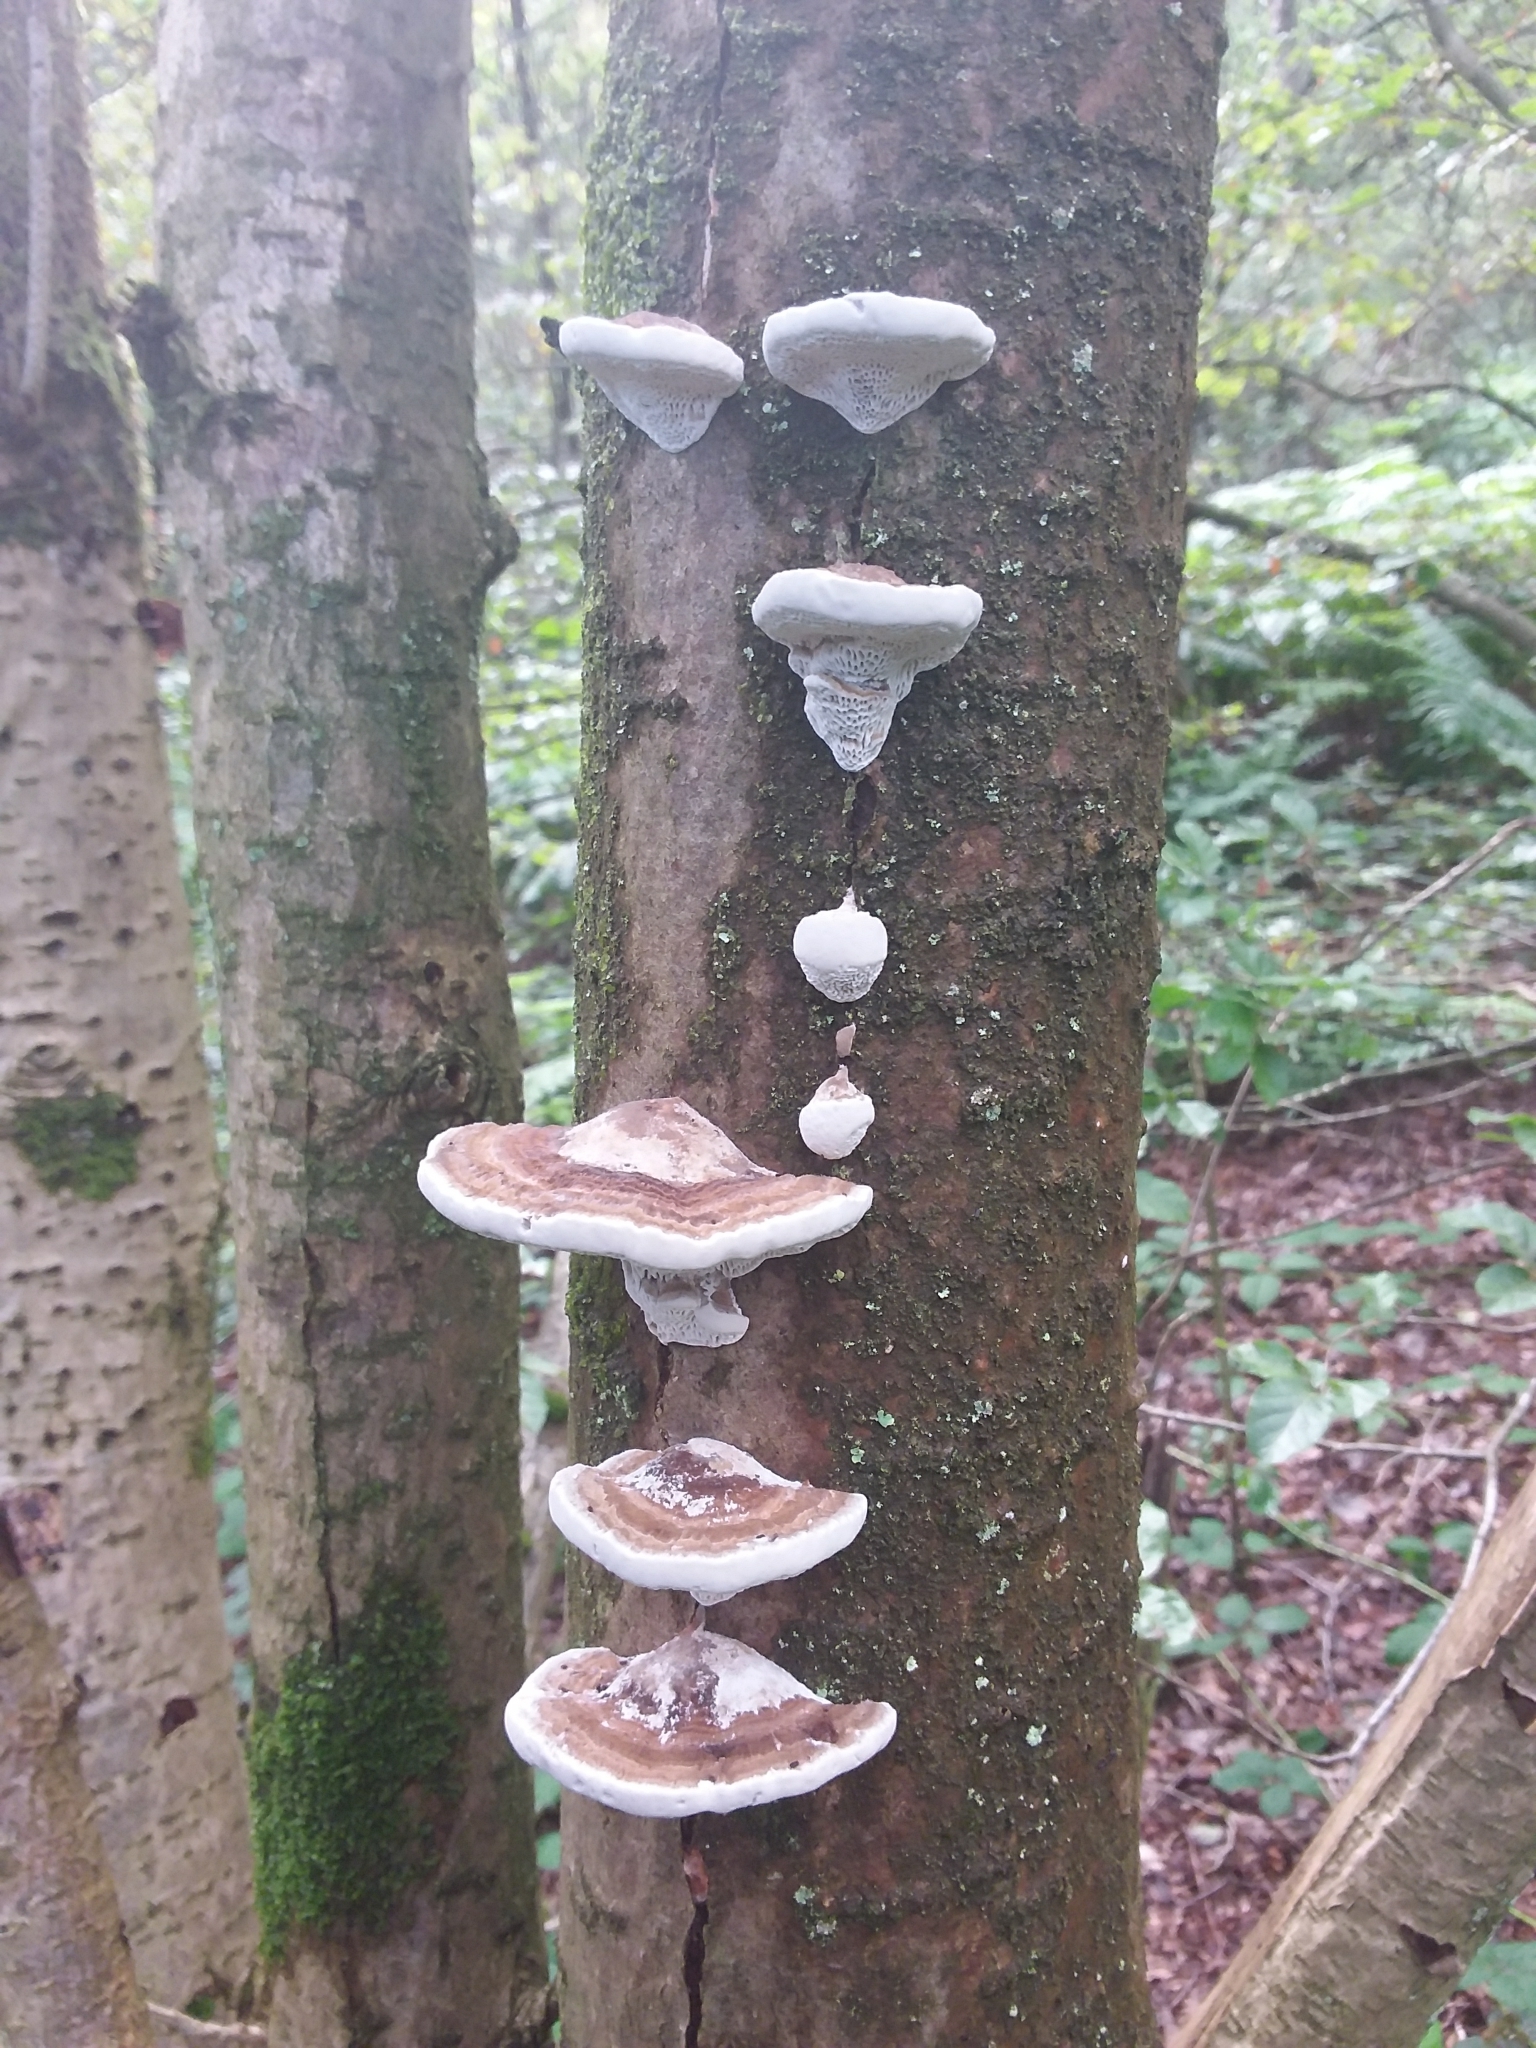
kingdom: Fungi
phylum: Basidiomycota
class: Agaricomycetes
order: Polyporales
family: Polyporaceae
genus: Daedaleopsis
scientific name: Daedaleopsis confragosa
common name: Blushing bracket
